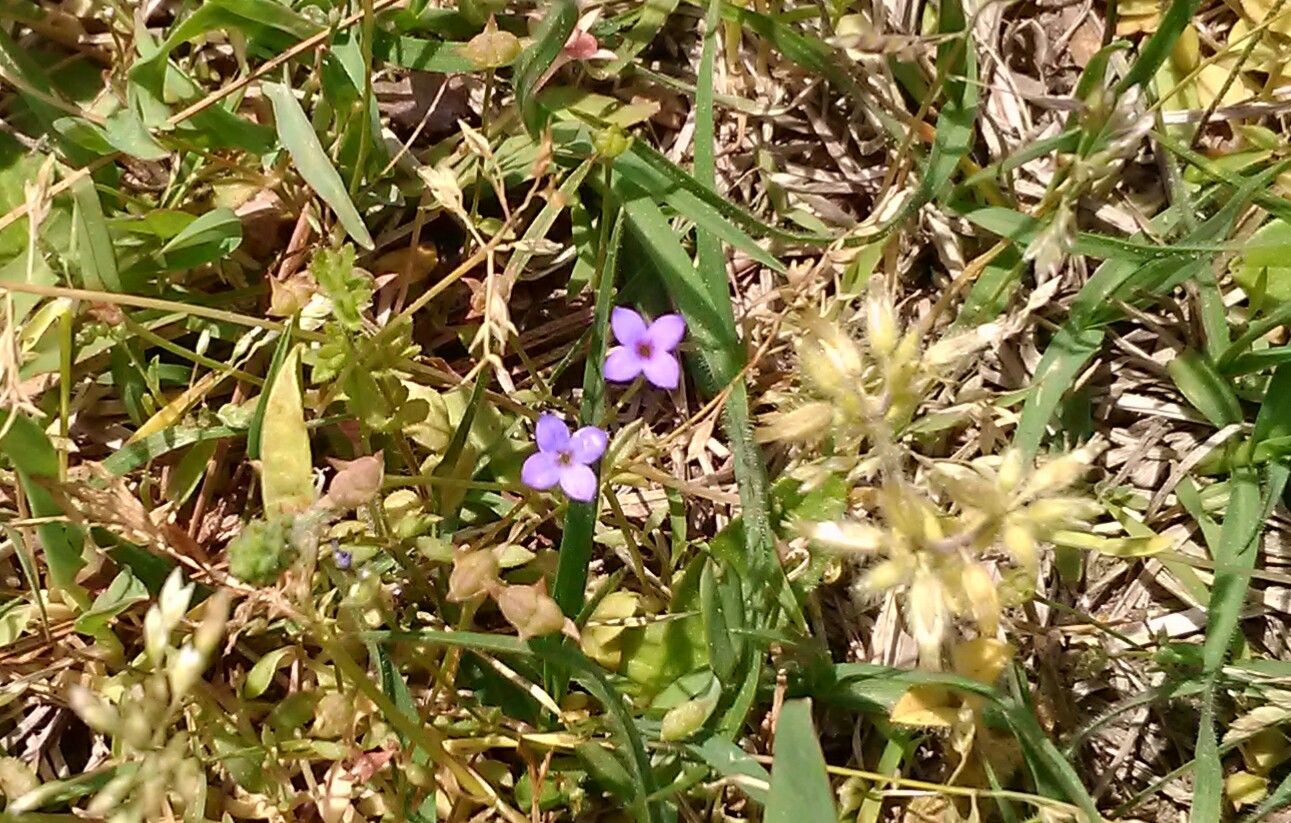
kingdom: Plantae
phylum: Tracheophyta
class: Magnoliopsida
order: Gentianales
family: Rubiaceae
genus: Houstonia
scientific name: Houstonia pusilla
